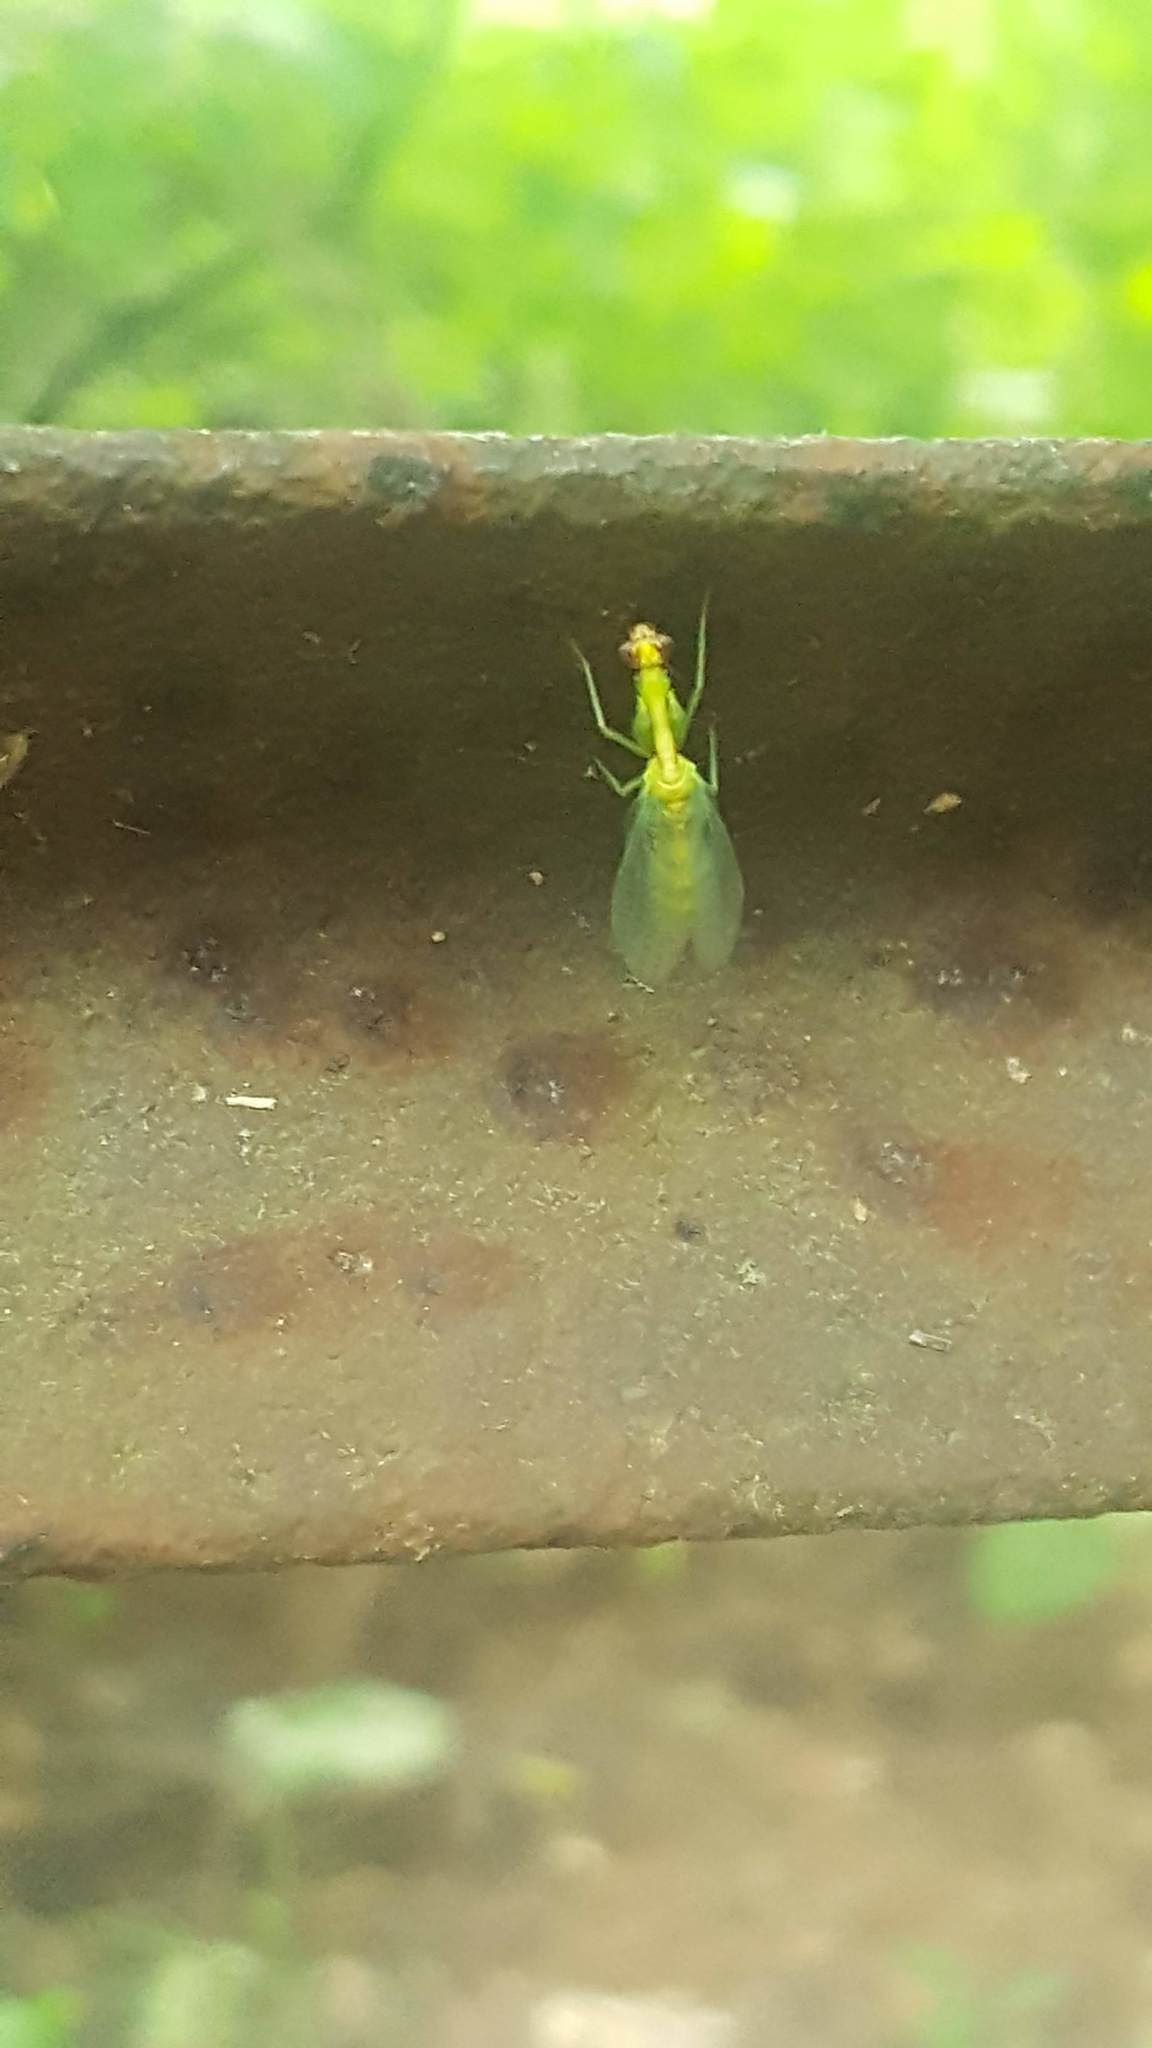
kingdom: Animalia
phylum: Arthropoda
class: Insecta
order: Neuroptera
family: Mantispidae
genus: Zeugomantispa
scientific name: Zeugomantispa minuta
